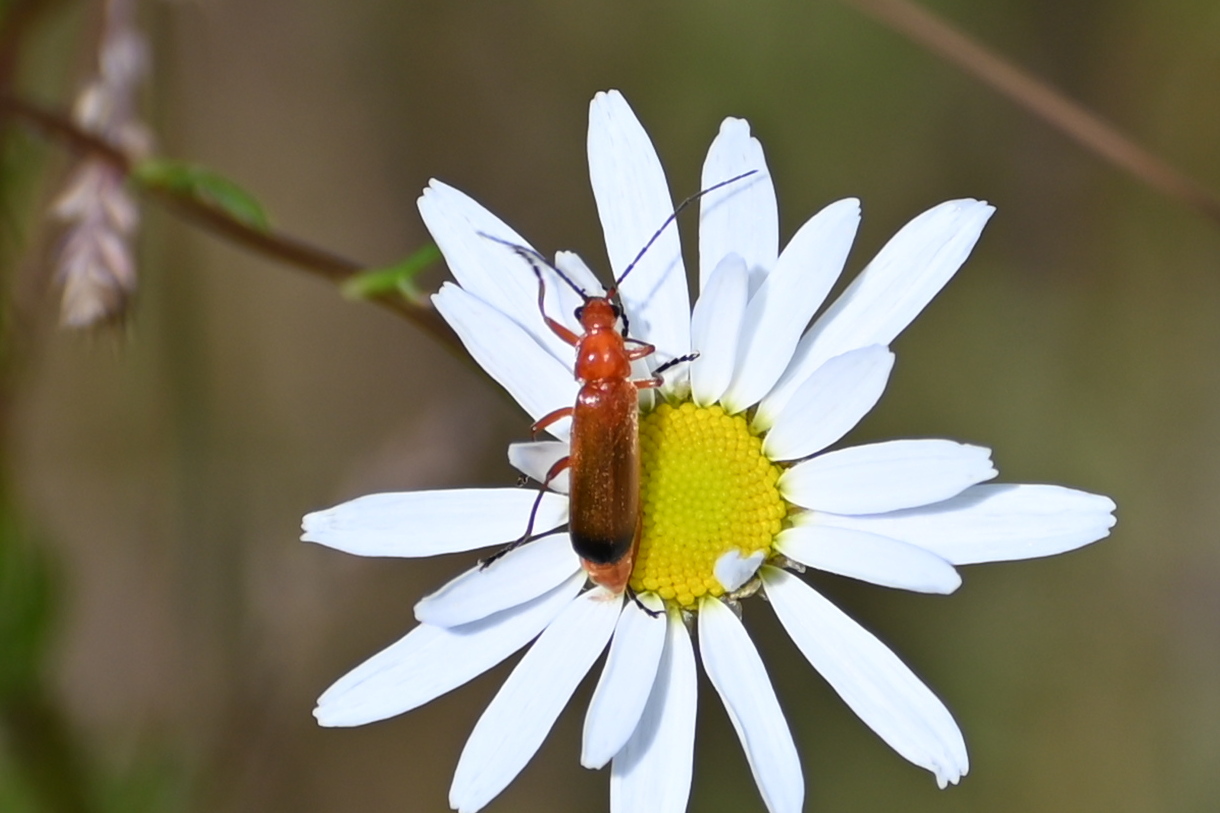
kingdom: Animalia
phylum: Arthropoda
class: Insecta
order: Coleoptera
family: Cantharidae
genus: Rhagonycha
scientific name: Rhagonycha fulva
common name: Common red soldier beetle
